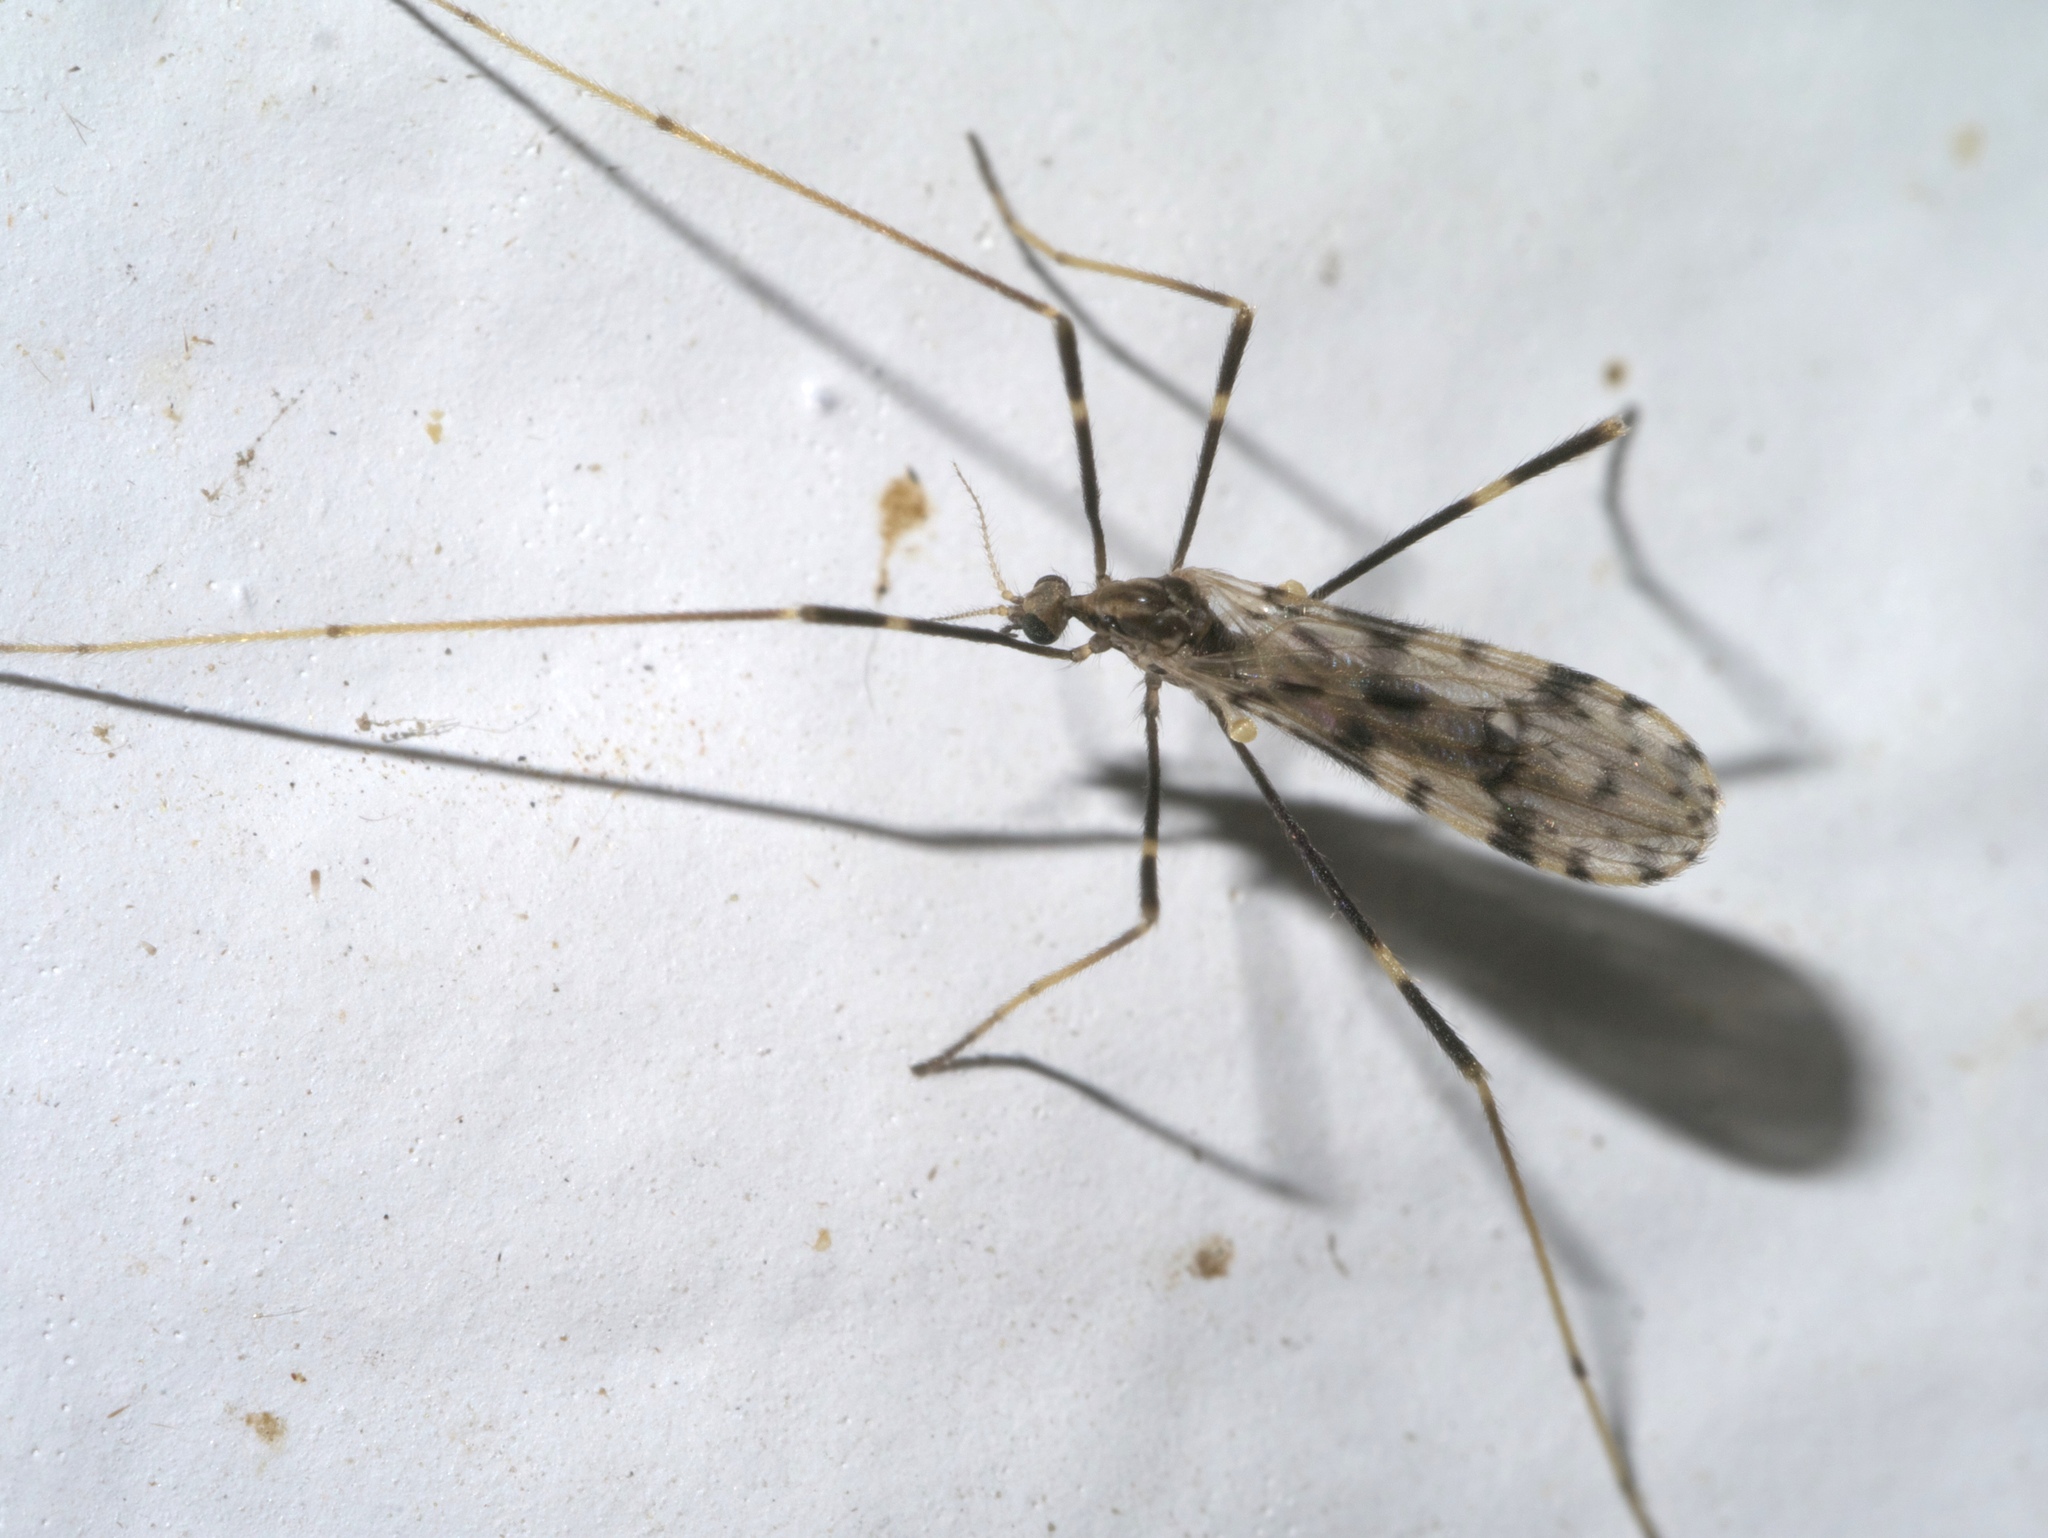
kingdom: Animalia
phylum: Arthropoda
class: Insecta
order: Diptera
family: Limoniidae
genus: Ilisia
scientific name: Ilisia graphica
